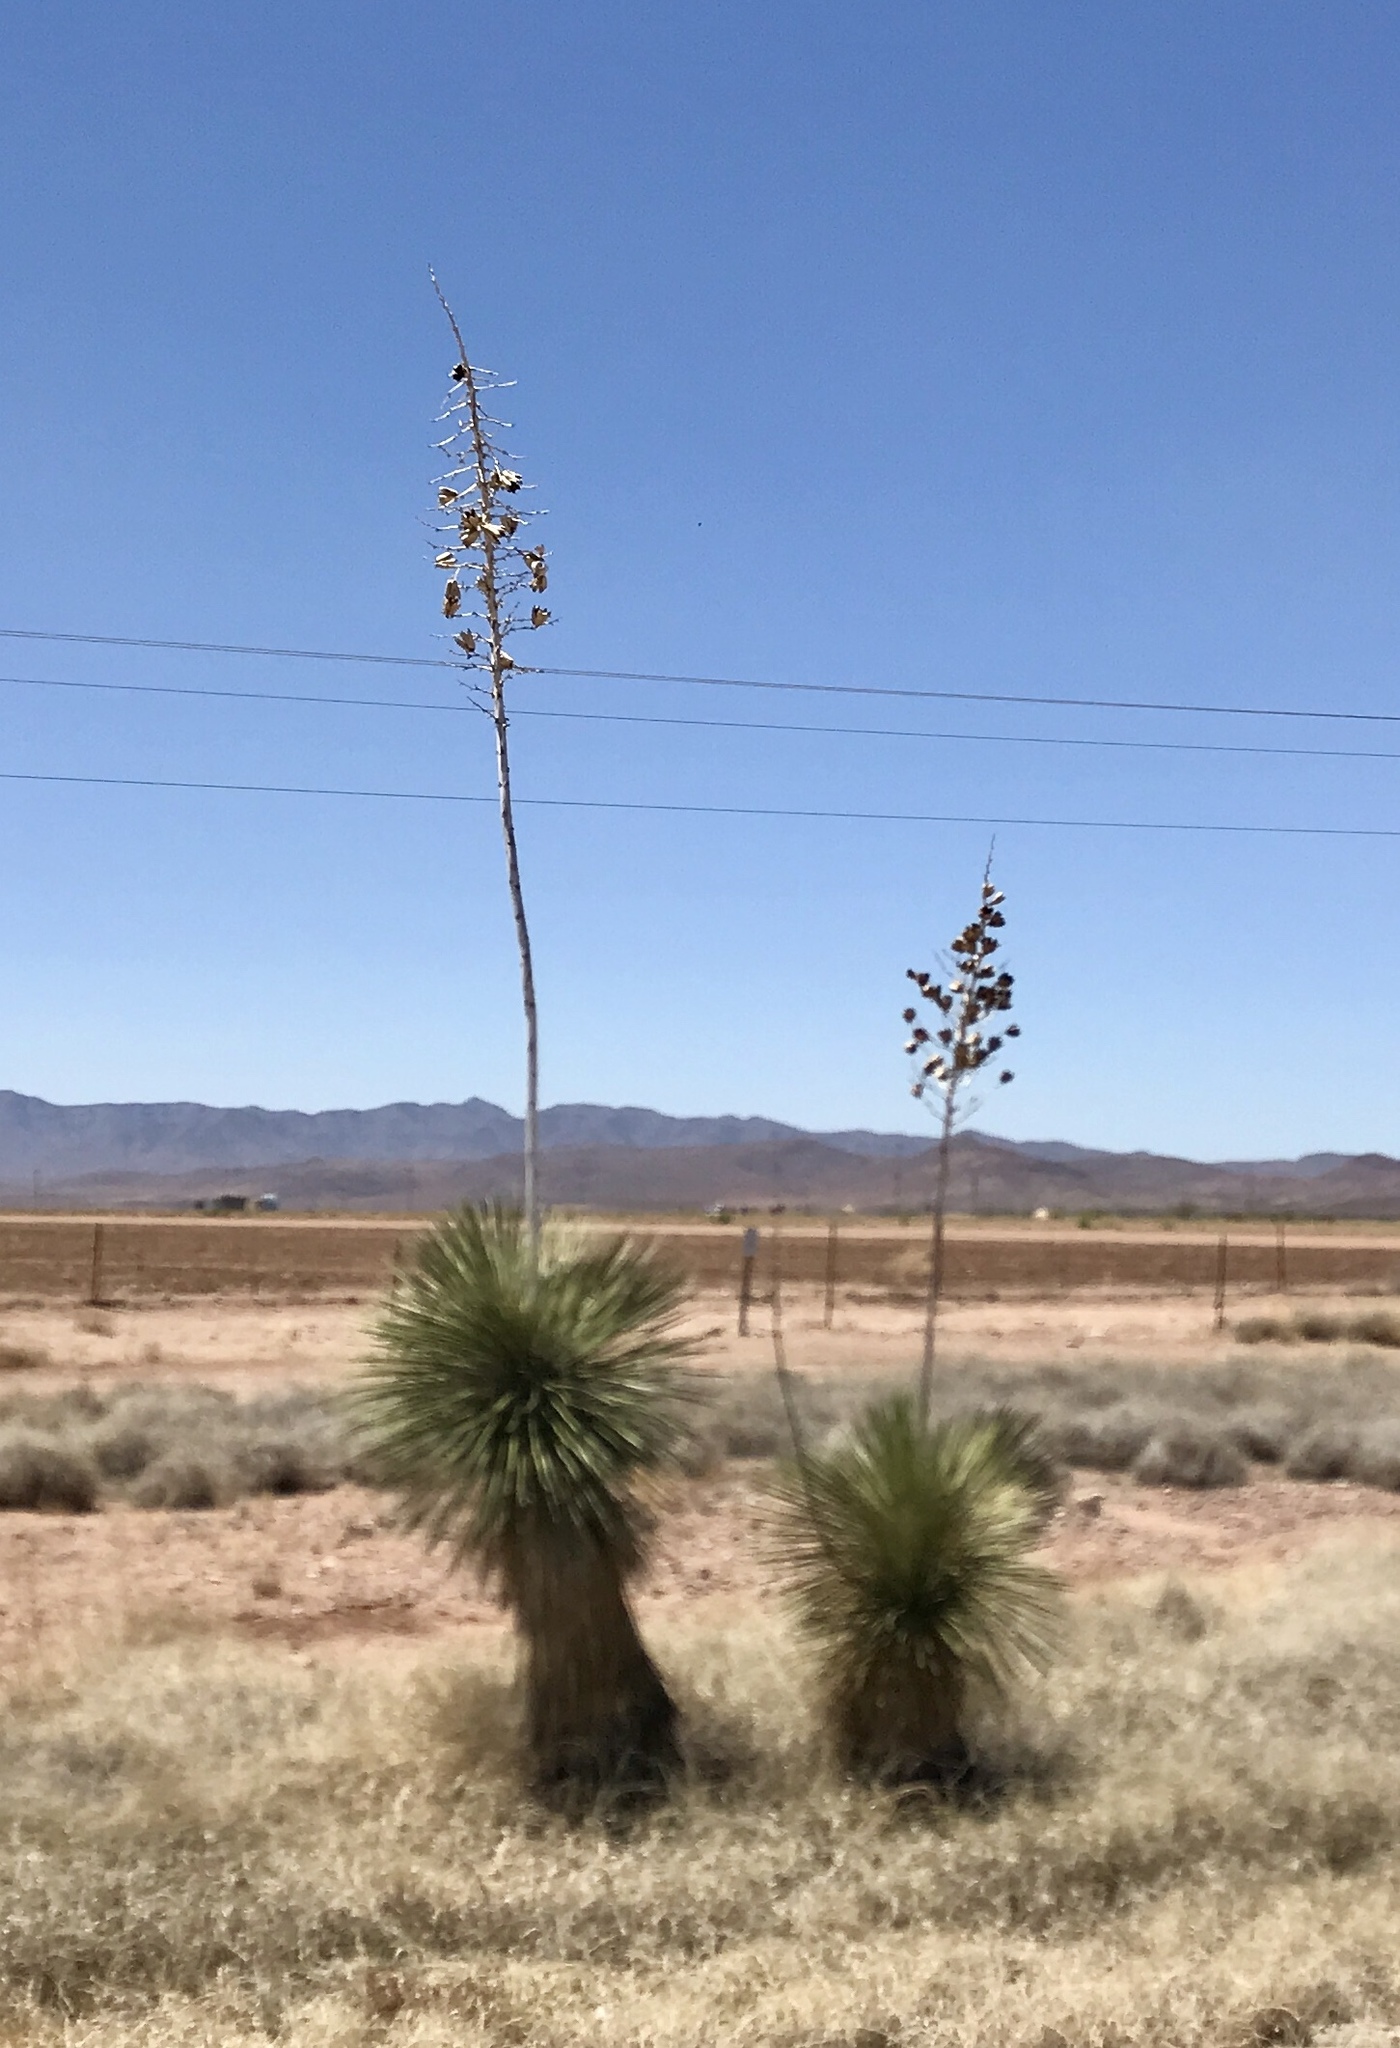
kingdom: Plantae
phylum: Tracheophyta
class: Liliopsida
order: Asparagales
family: Asparagaceae
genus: Yucca
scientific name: Yucca elata
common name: Palmella
